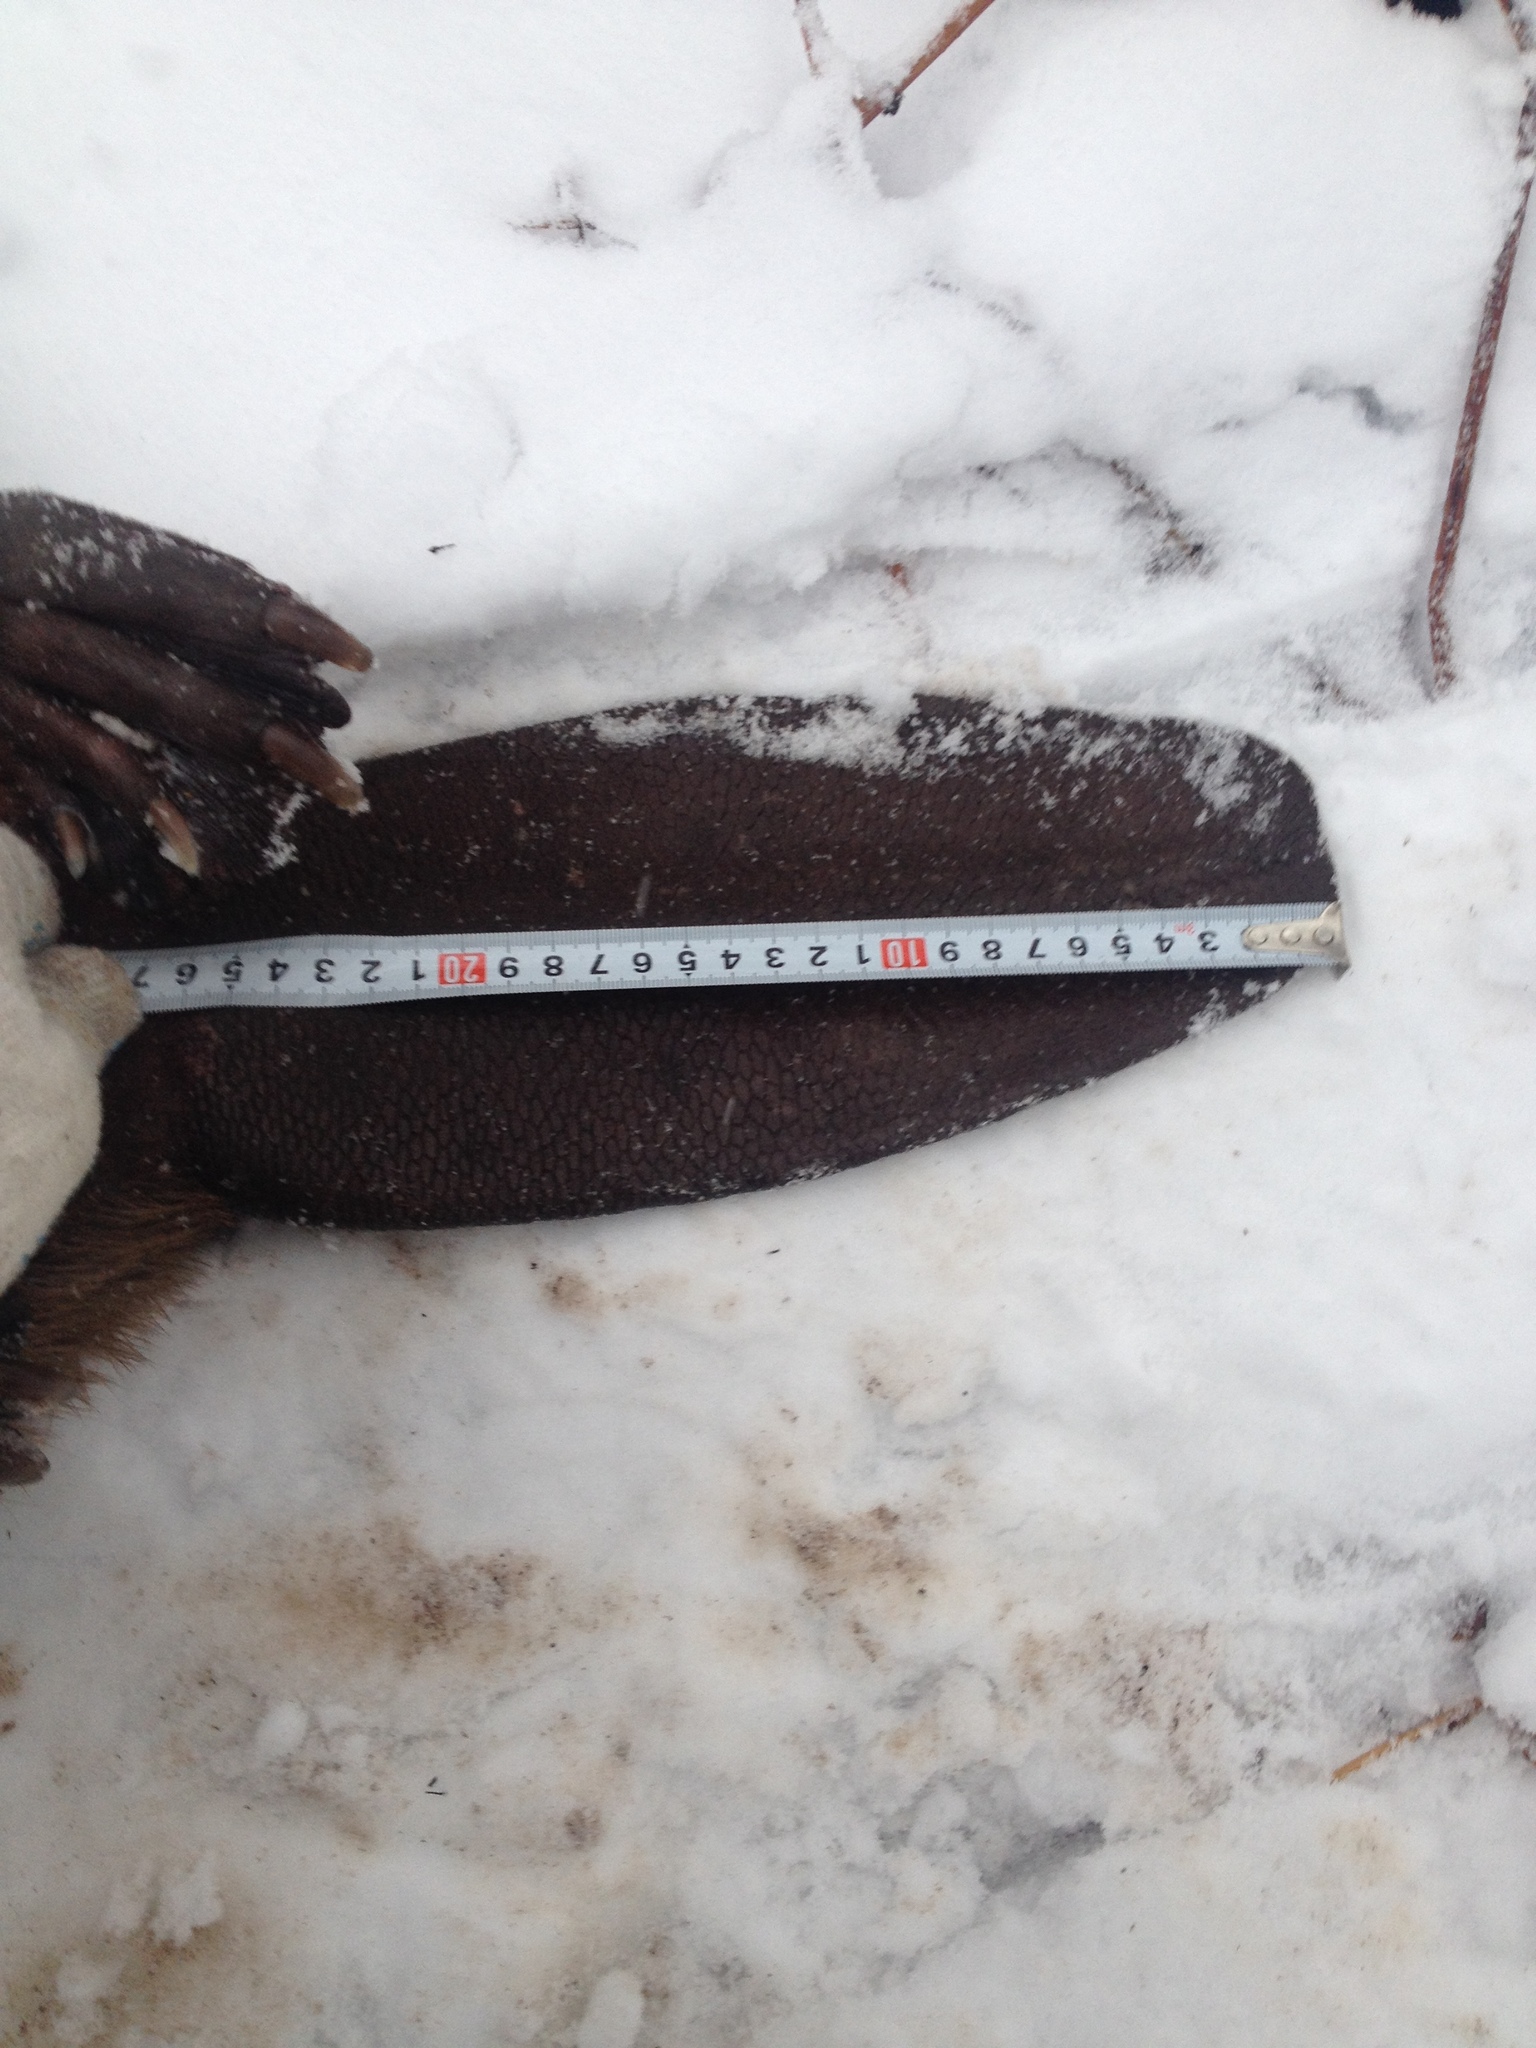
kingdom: Animalia
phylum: Chordata
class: Mammalia
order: Rodentia
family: Castoridae
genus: Castor
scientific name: Castor fiber
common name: Eurasian beaver
